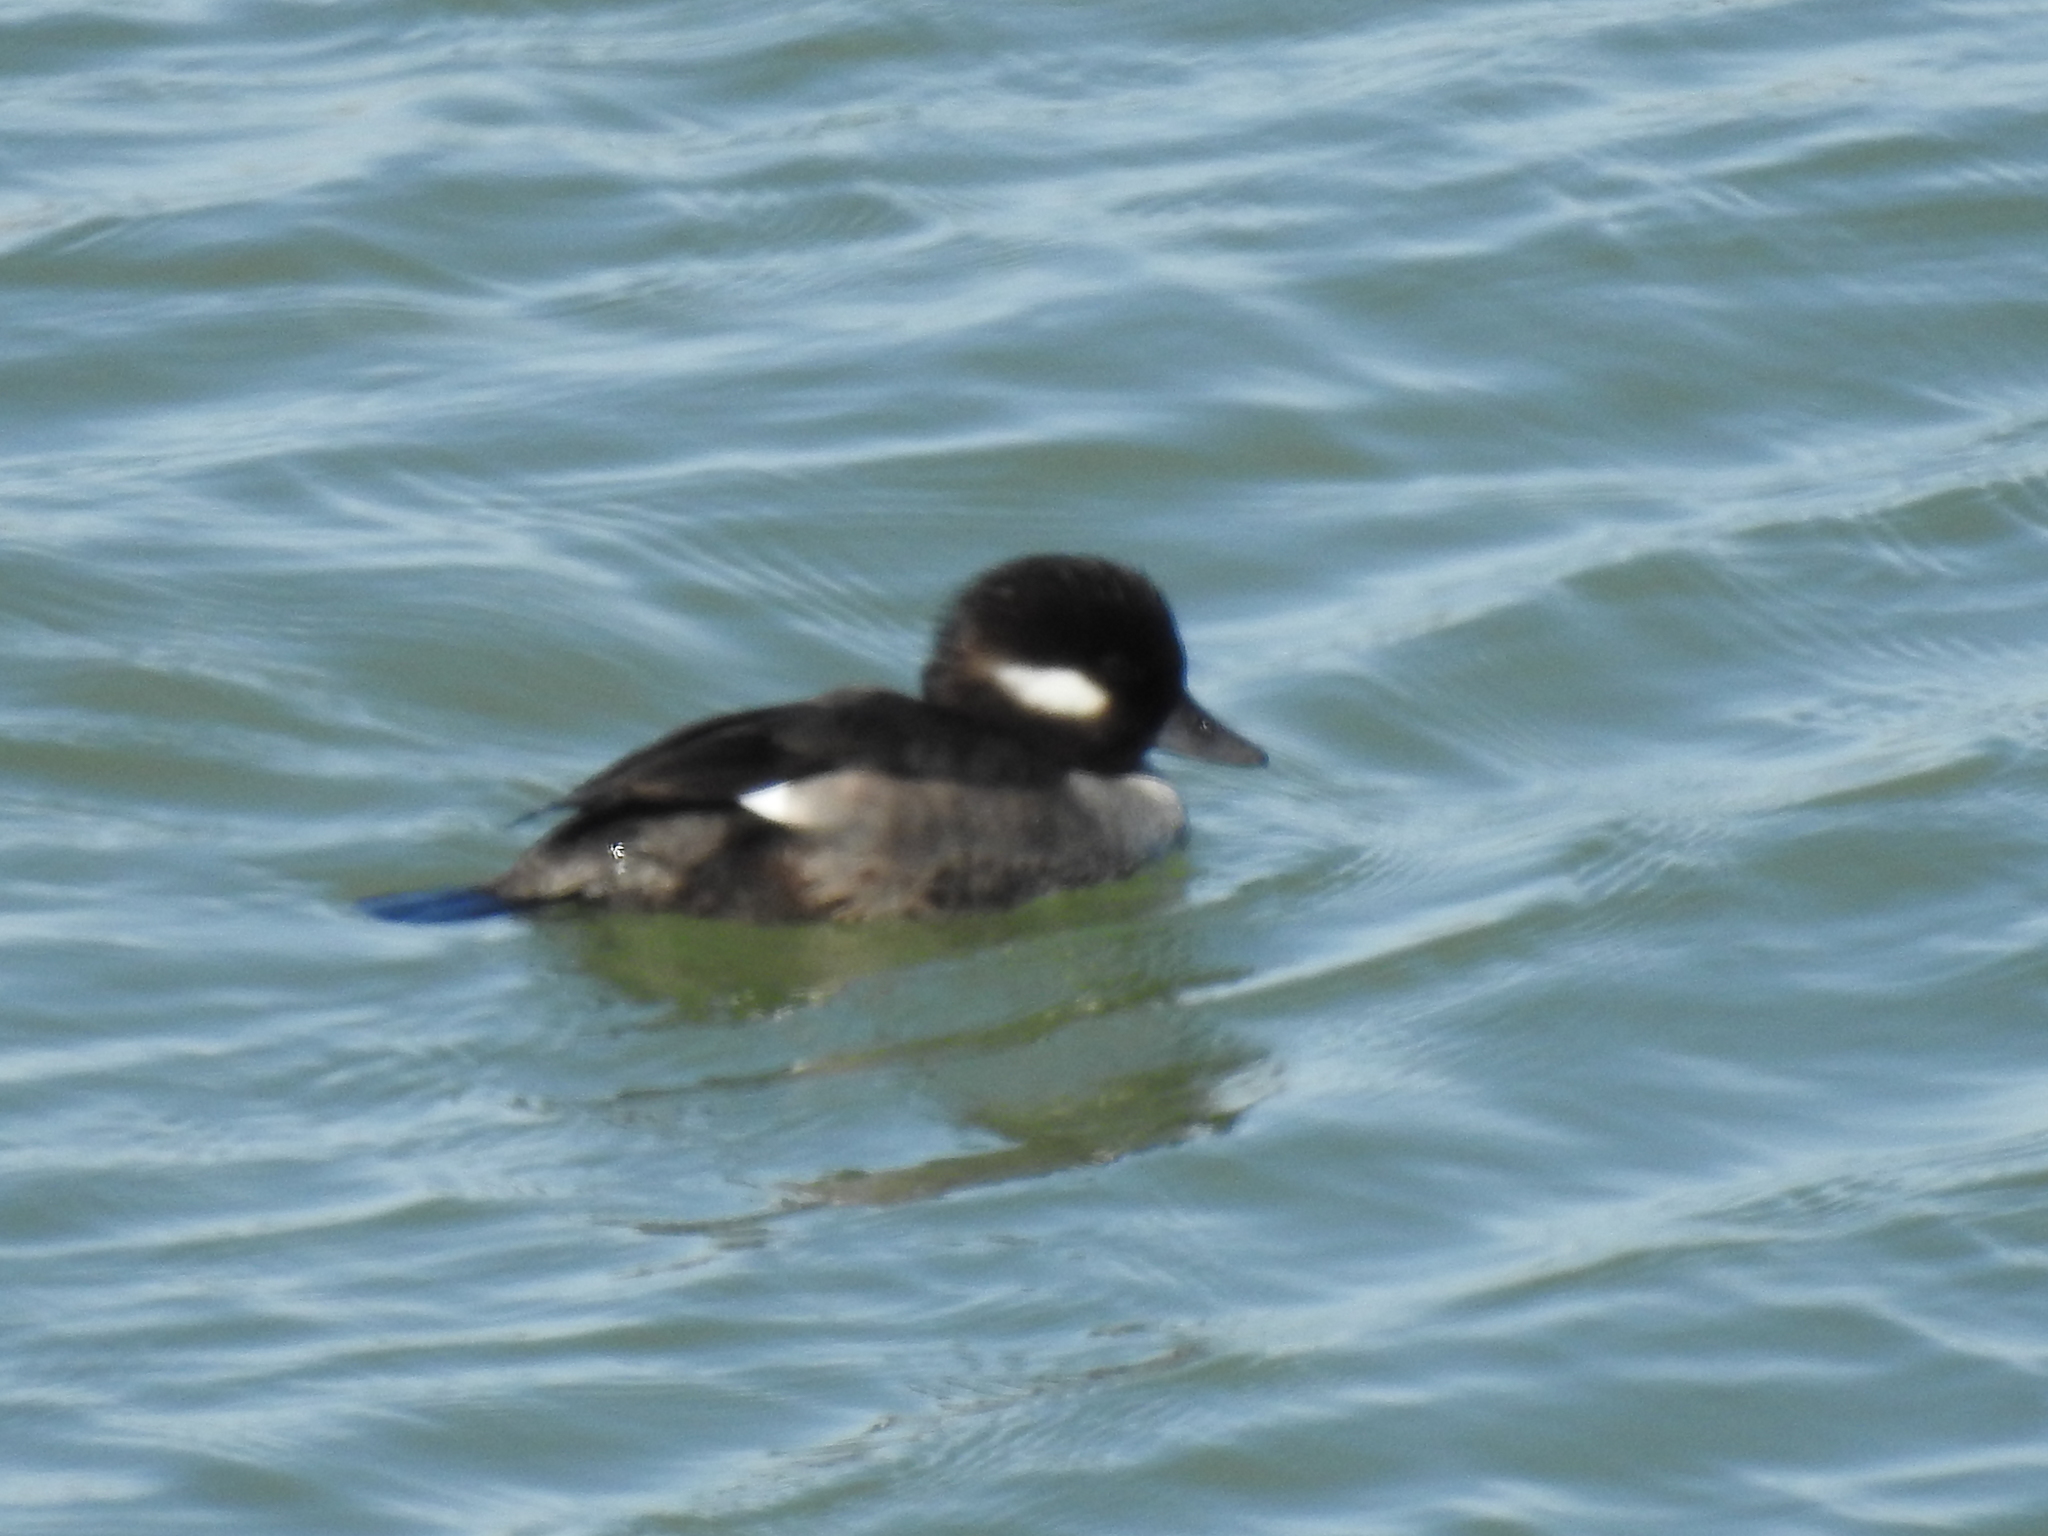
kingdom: Animalia
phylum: Chordata
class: Aves
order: Anseriformes
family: Anatidae
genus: Bucephala
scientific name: Bucephala albeola
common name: Bufflehead
